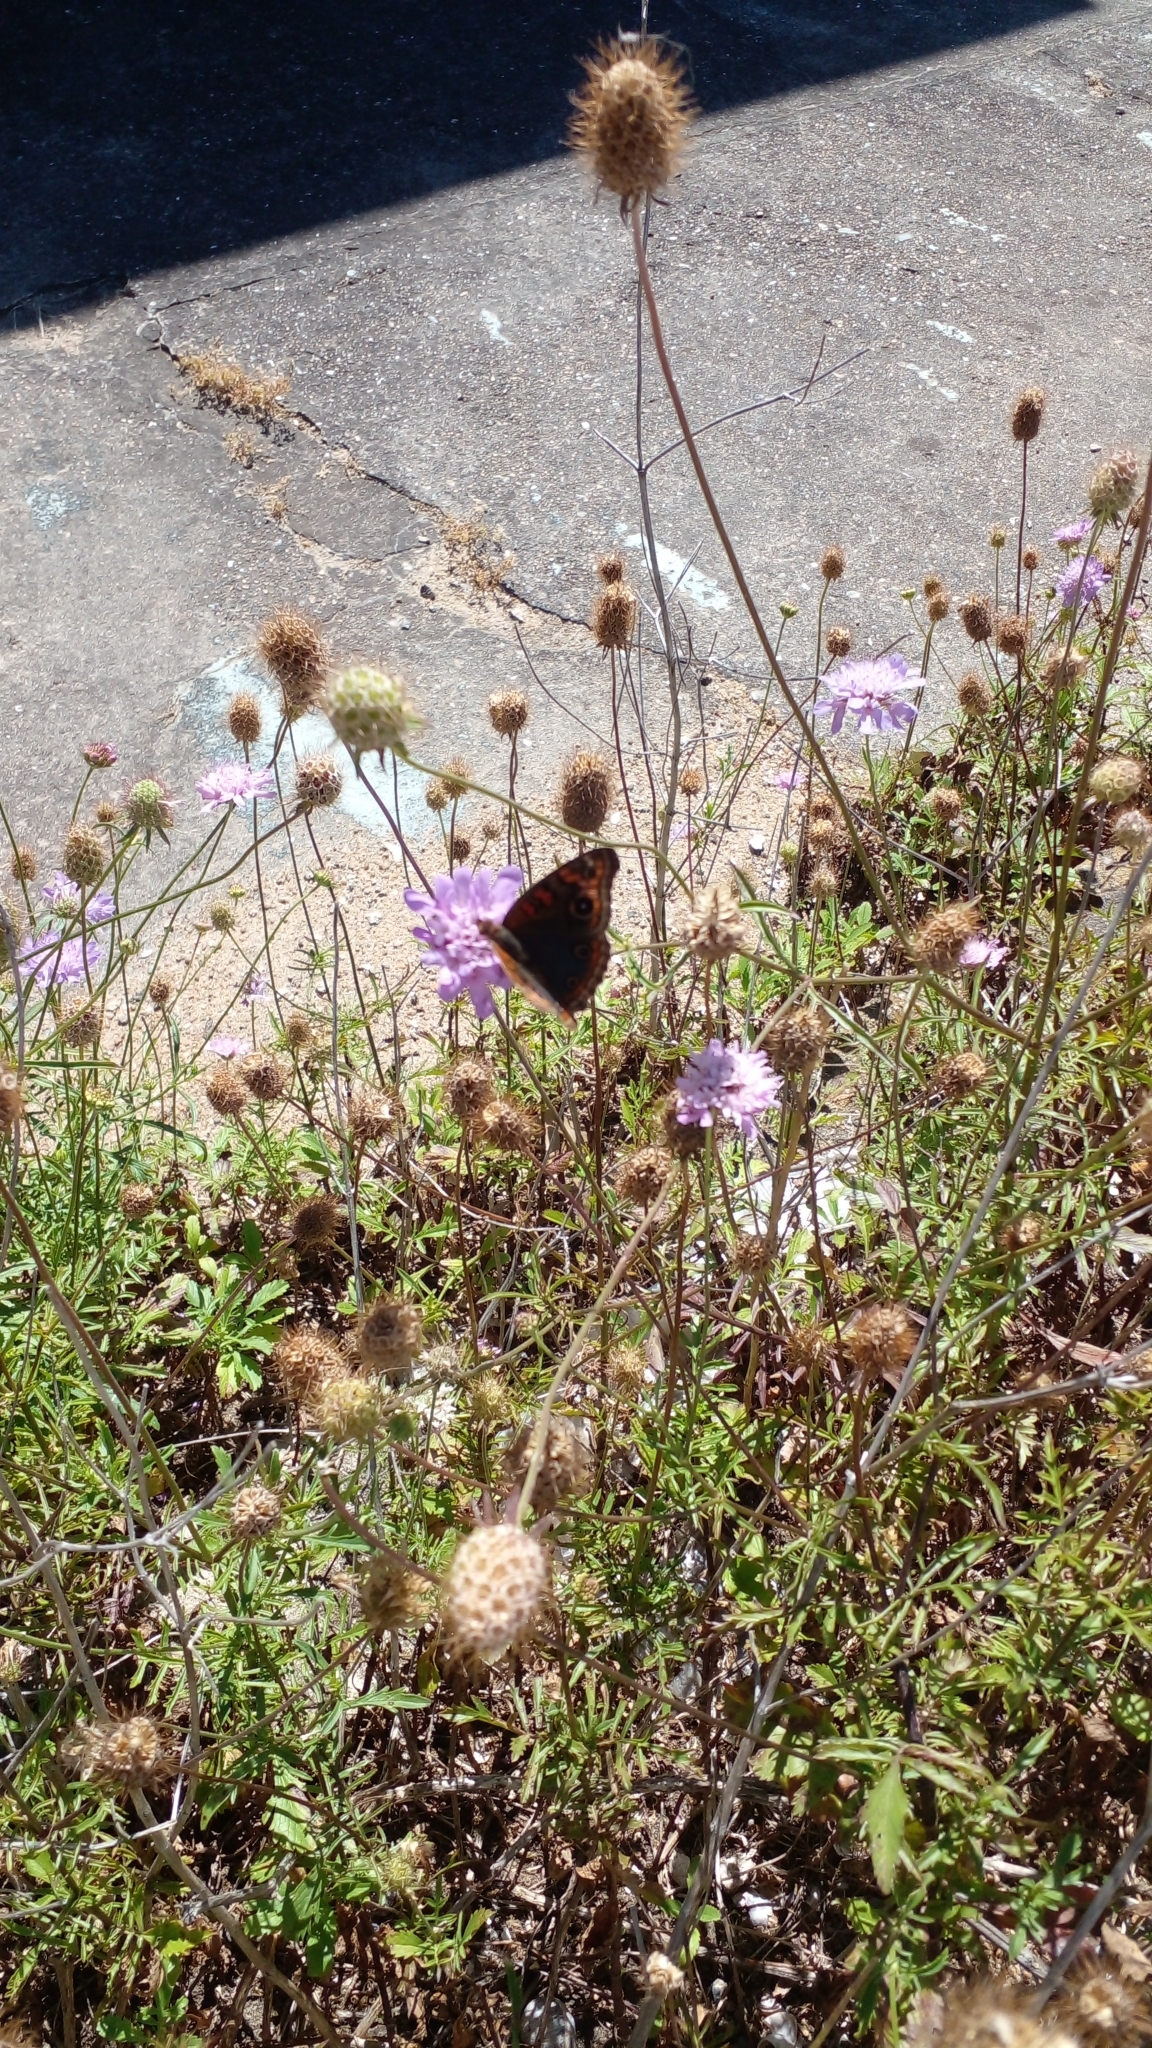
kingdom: Animalia
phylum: Arthropoda
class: Insecta
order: Lepidoptera
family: Nymphalidae
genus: Junonia
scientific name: Junonia lavinia
